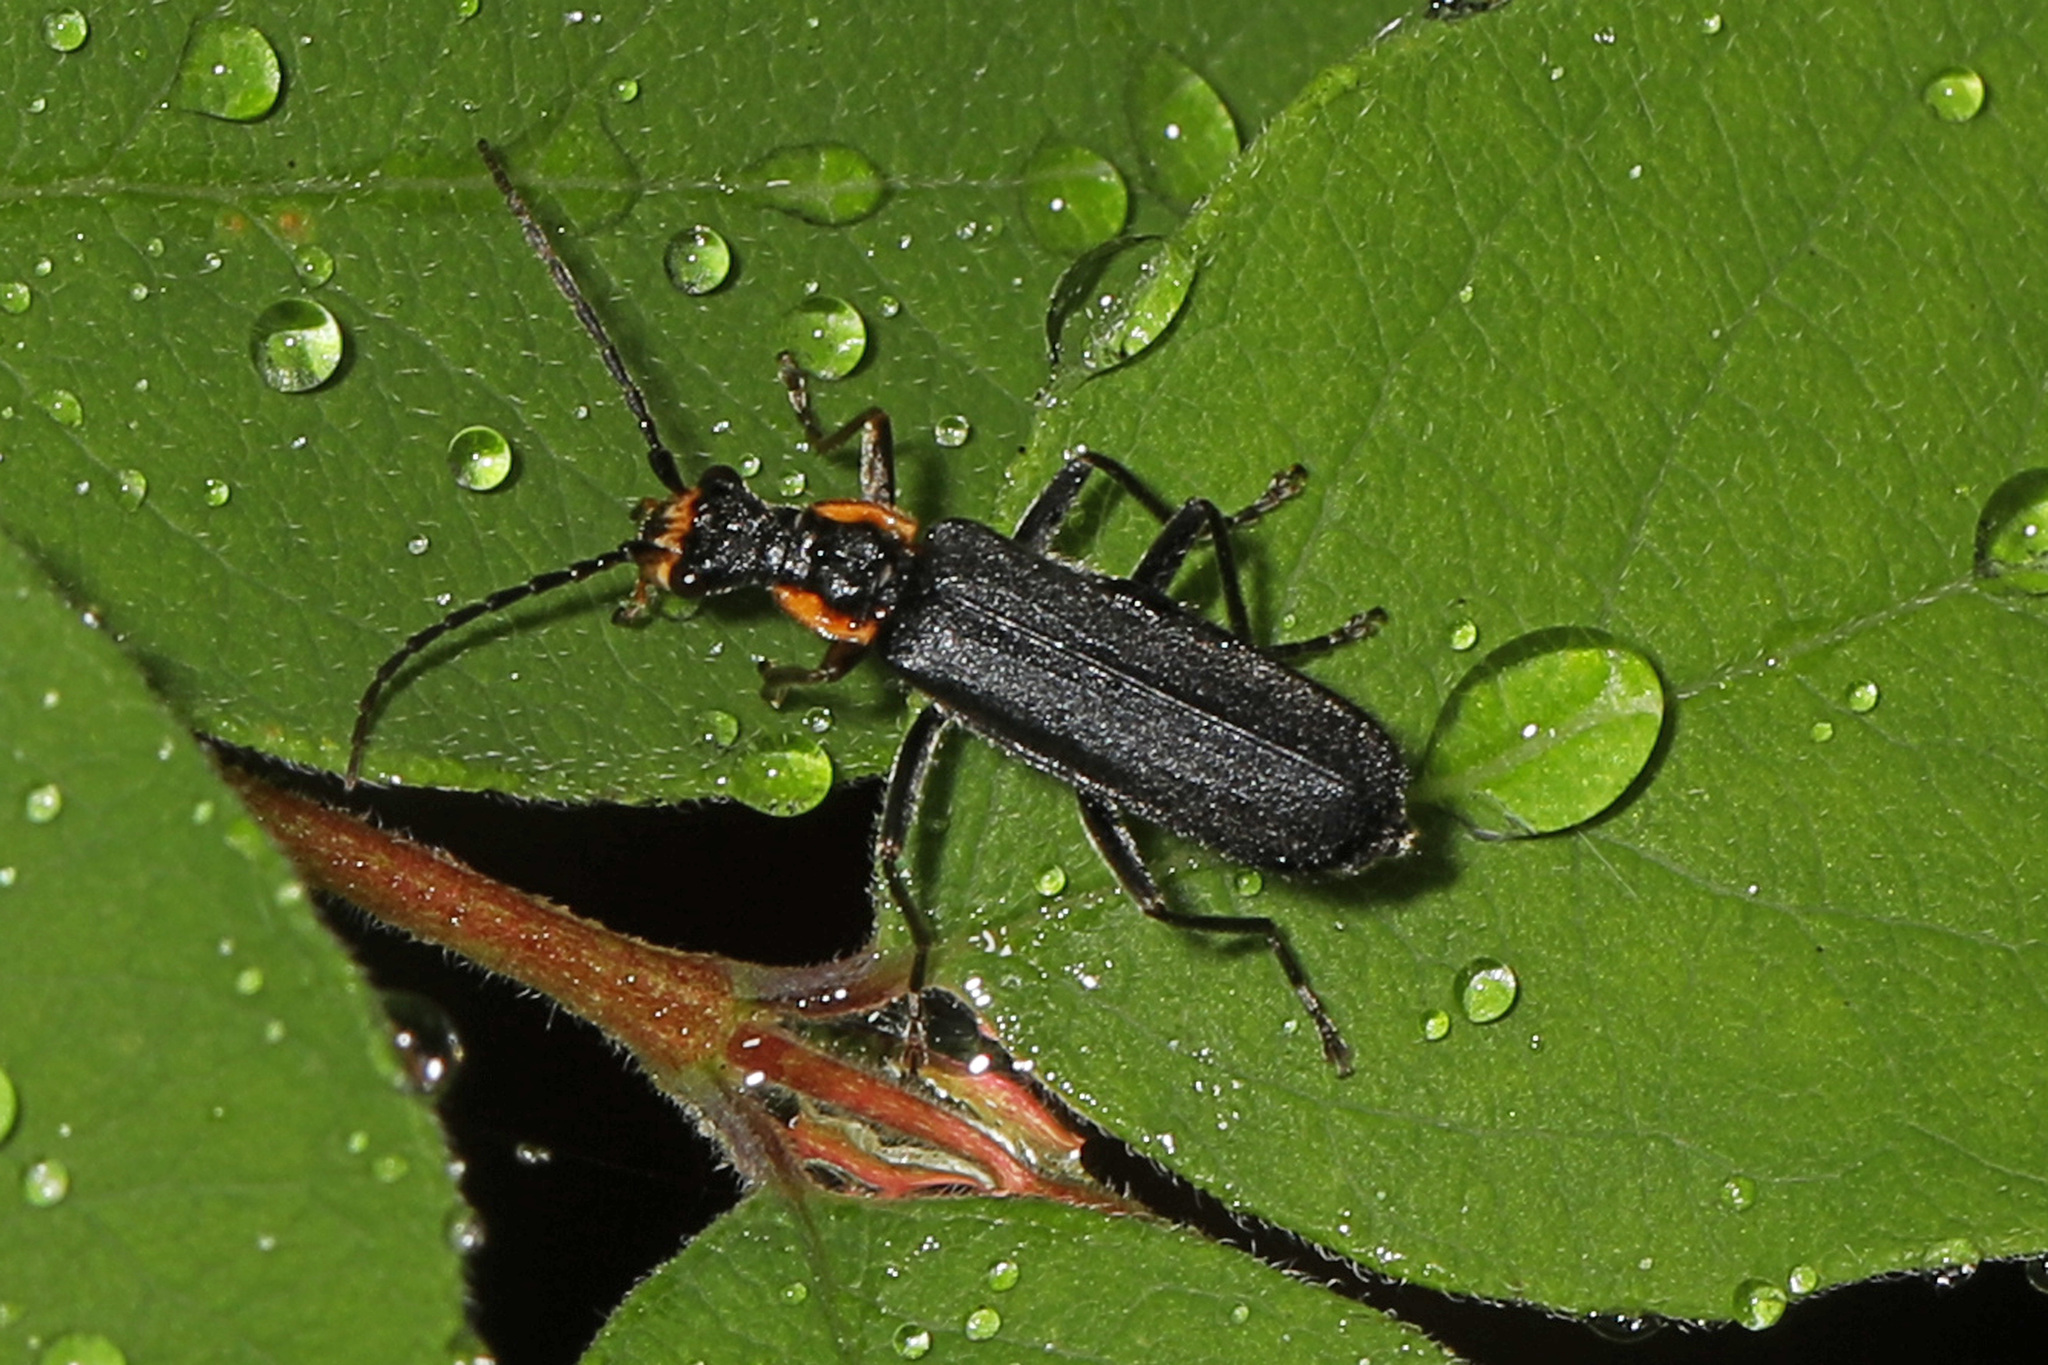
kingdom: Animalia
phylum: Arthropoda
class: Insecta
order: Coleoptera
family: Cantharidae
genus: Podabrus
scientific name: Podabrus rugosulus
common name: Wrinkled soldier beetle
